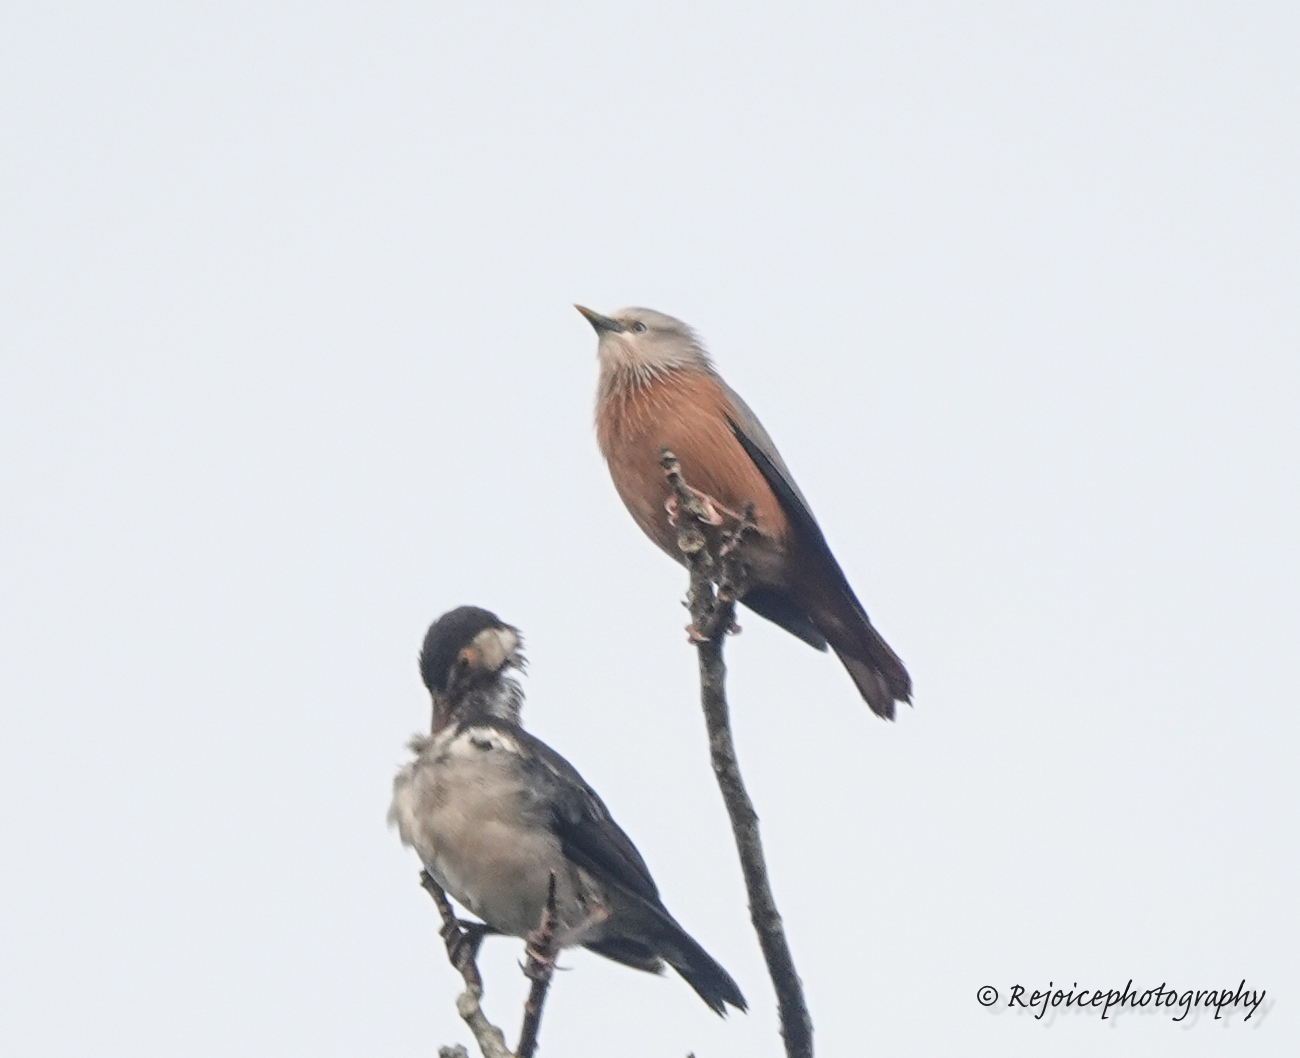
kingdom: Animalia
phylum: Chordata
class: Aves
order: Passeriformes
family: Sturnidae
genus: Sturnia
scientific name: Sturnia malabarica
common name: Chestnut-tailed starling
